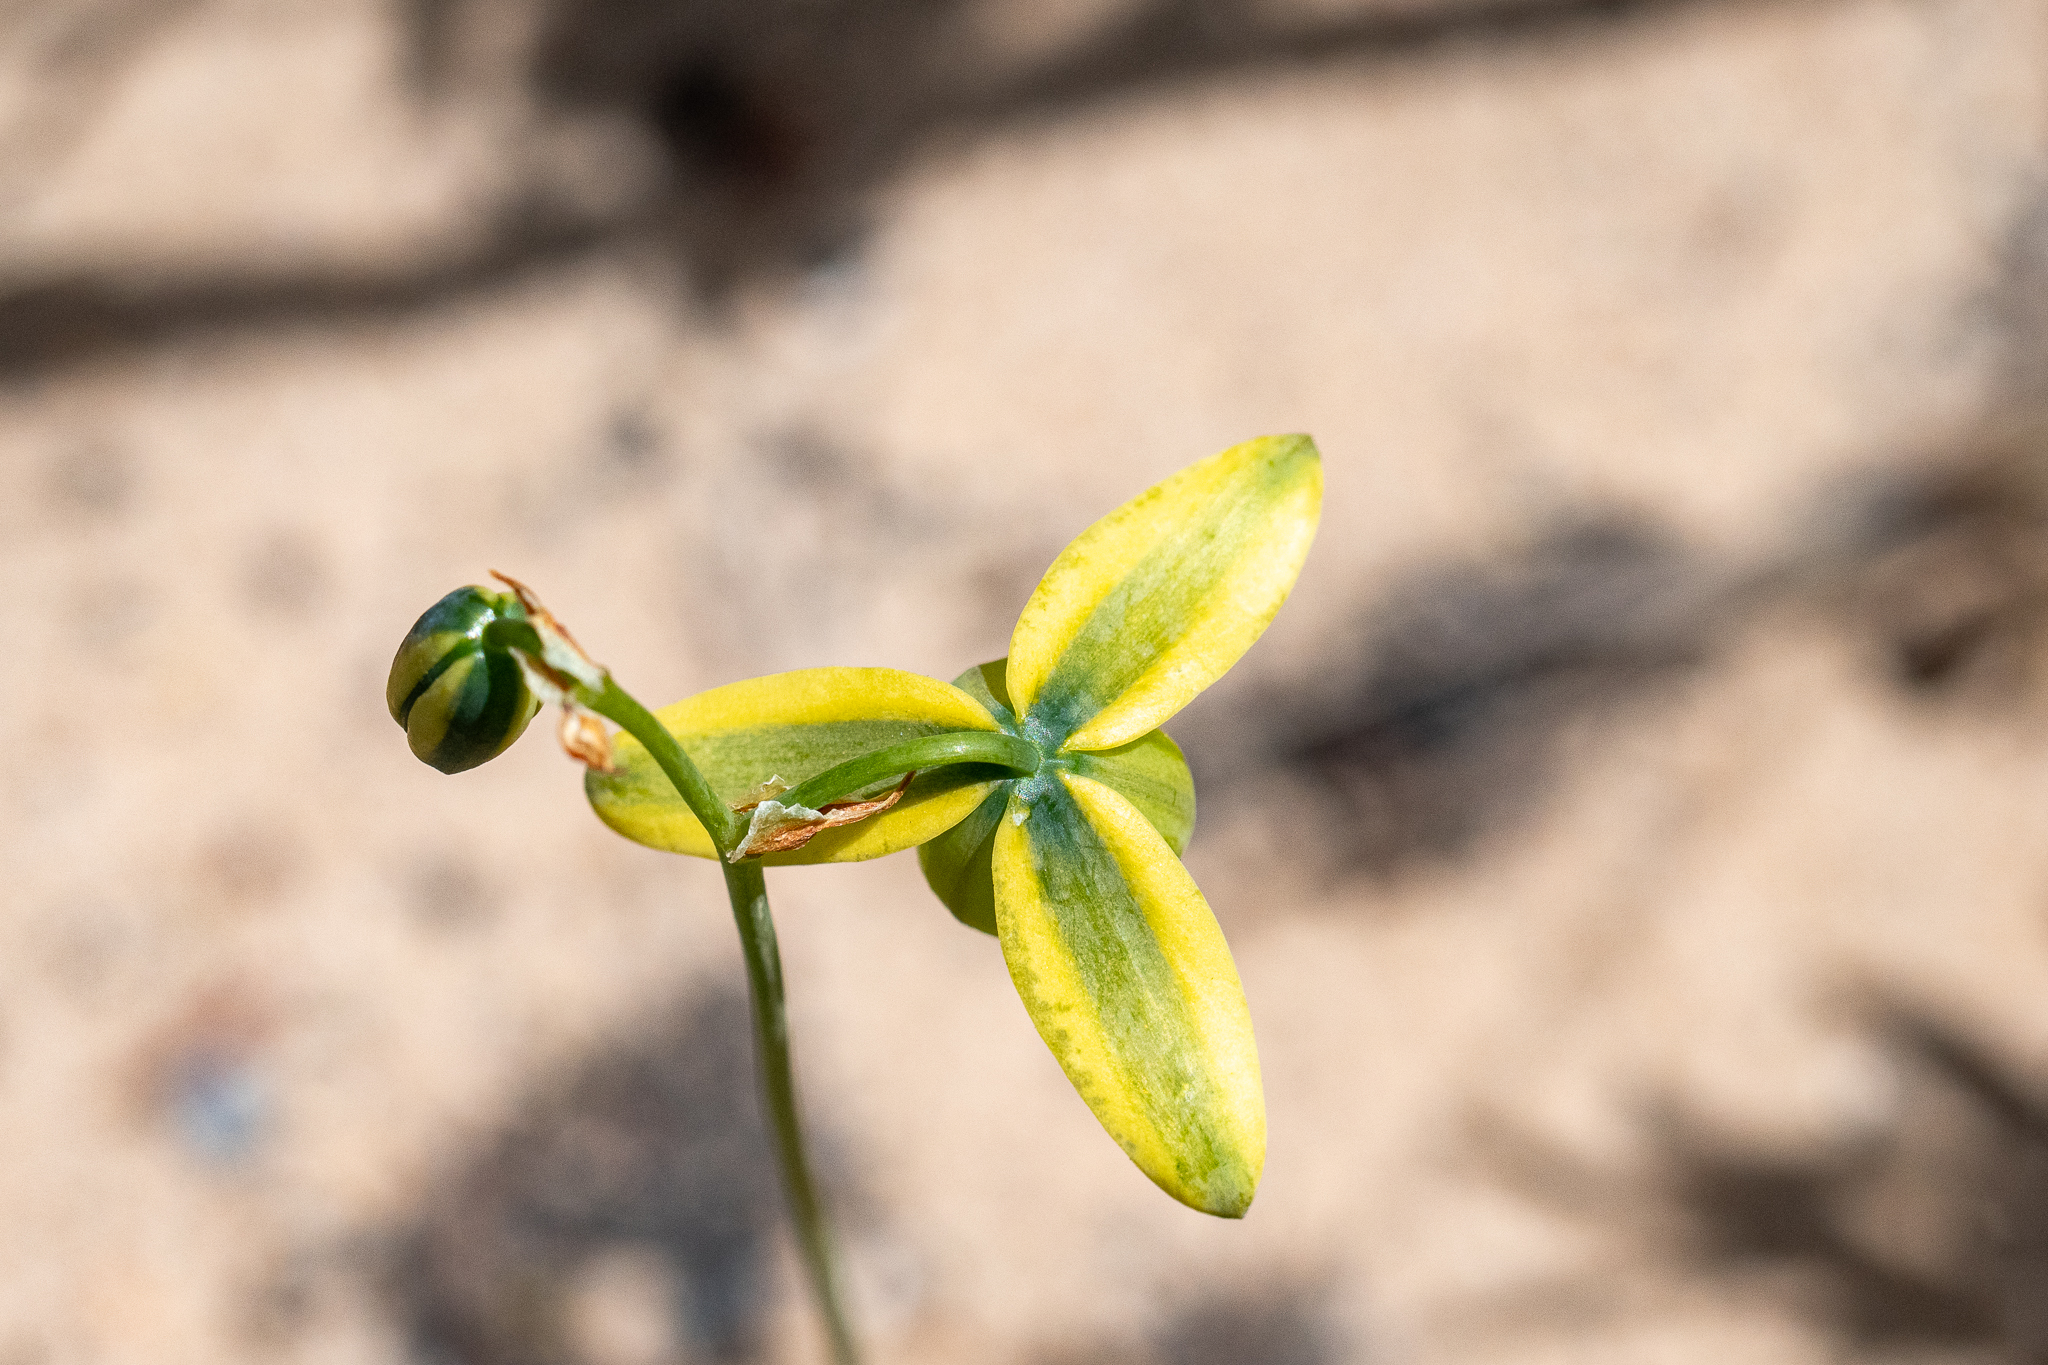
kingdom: Plantae
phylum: Tracheophyta
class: Liliopsida
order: Asparagales
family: Asparagaceae
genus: Albuca
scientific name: Albuca cooperi
